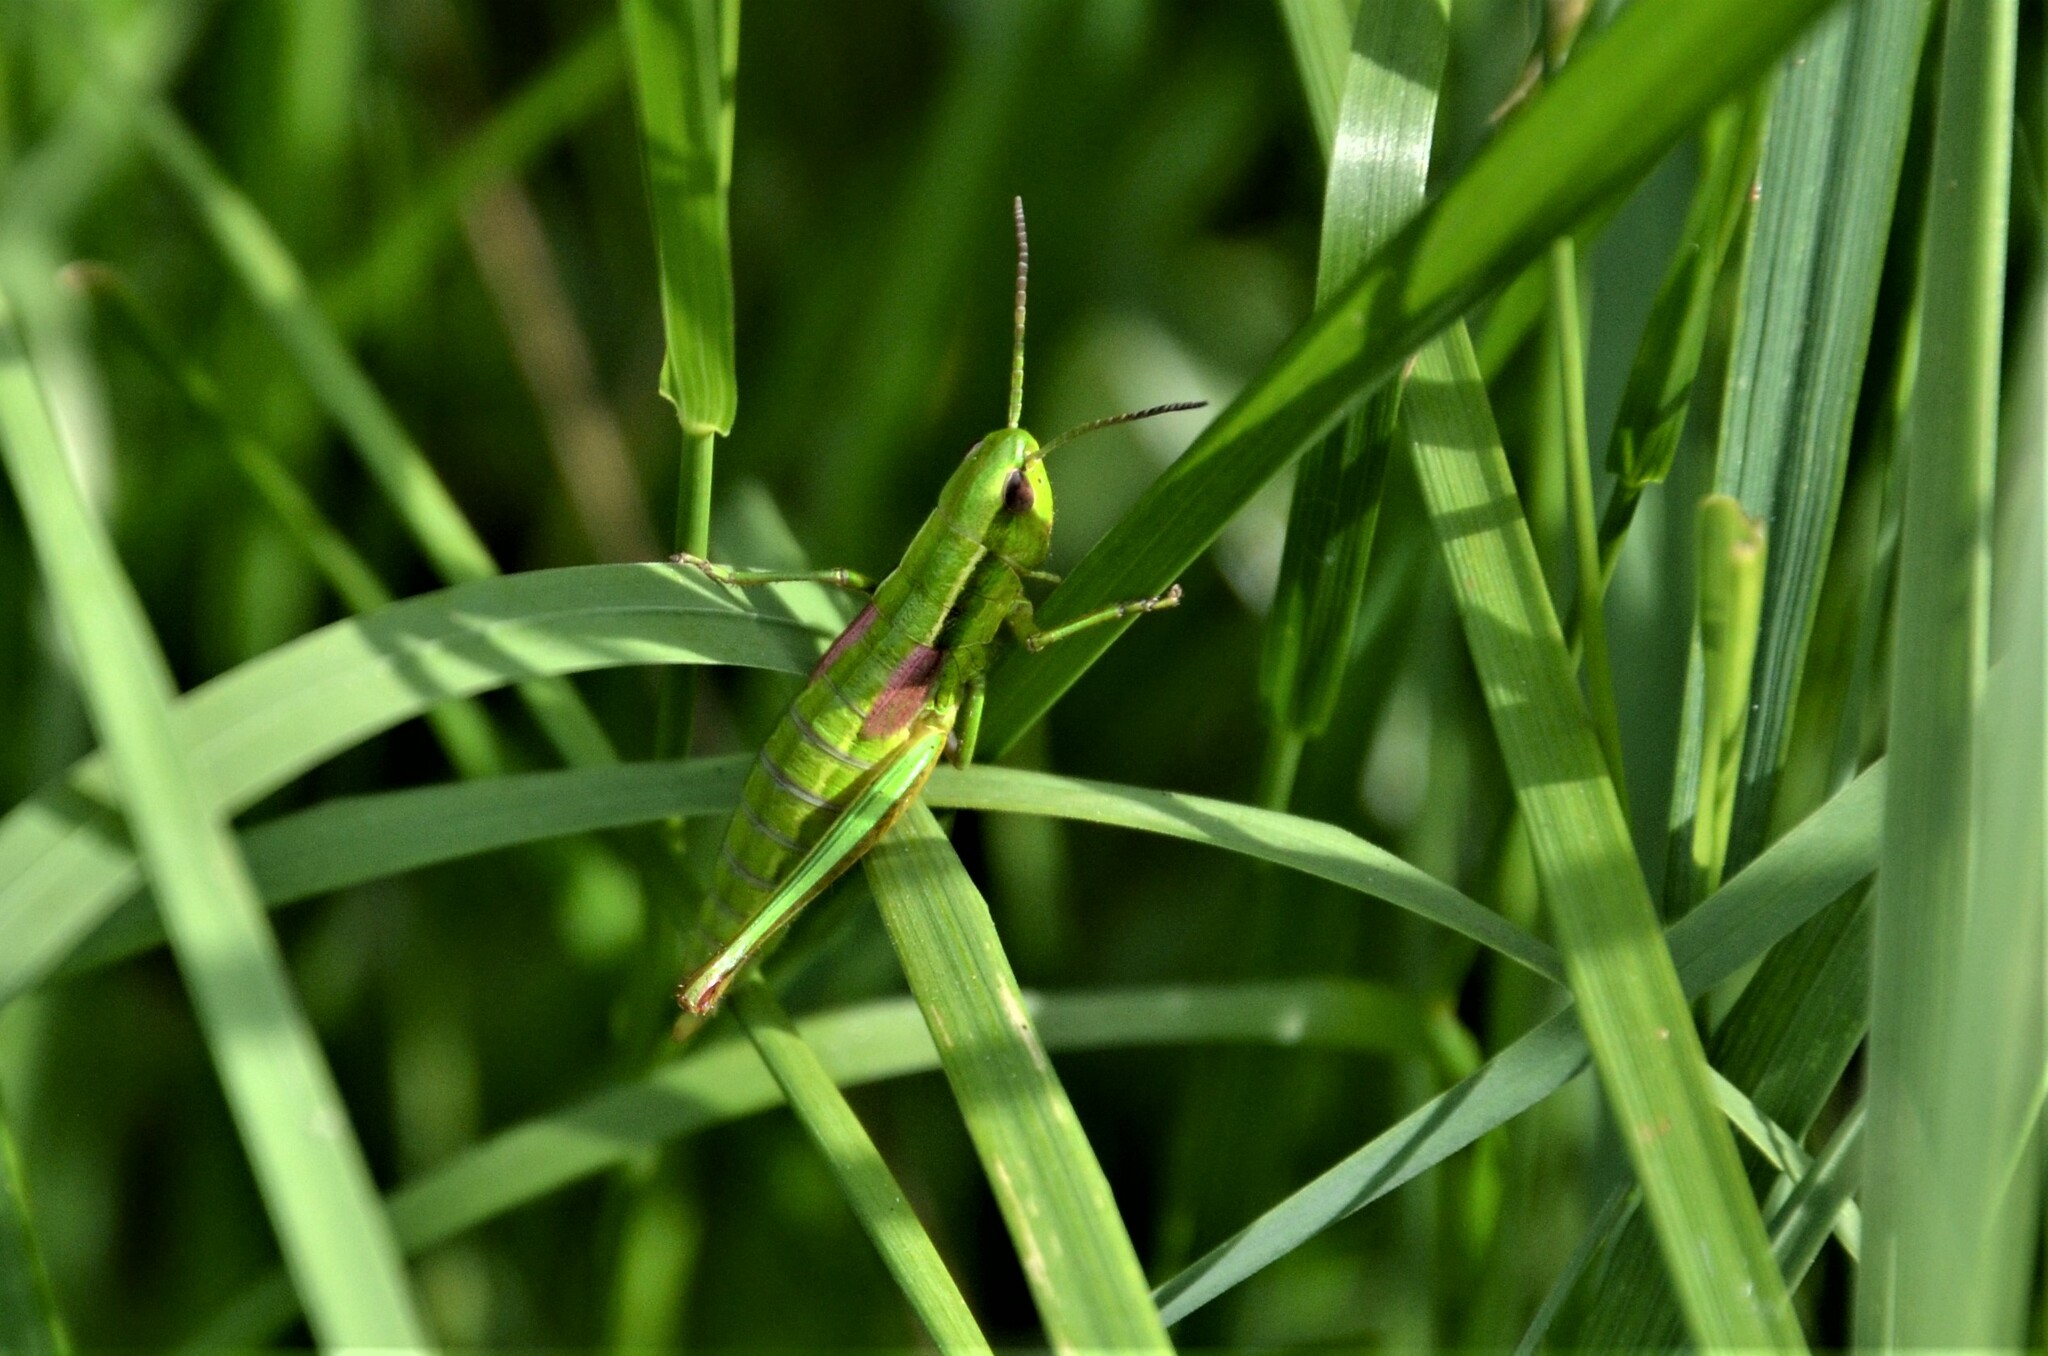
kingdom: Animalia
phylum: Arthropoda
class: Insecta
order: Orthoptera
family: Acrididae
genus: Euthystira
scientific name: Euthystira brachyptera
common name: Small gold grasshopper
